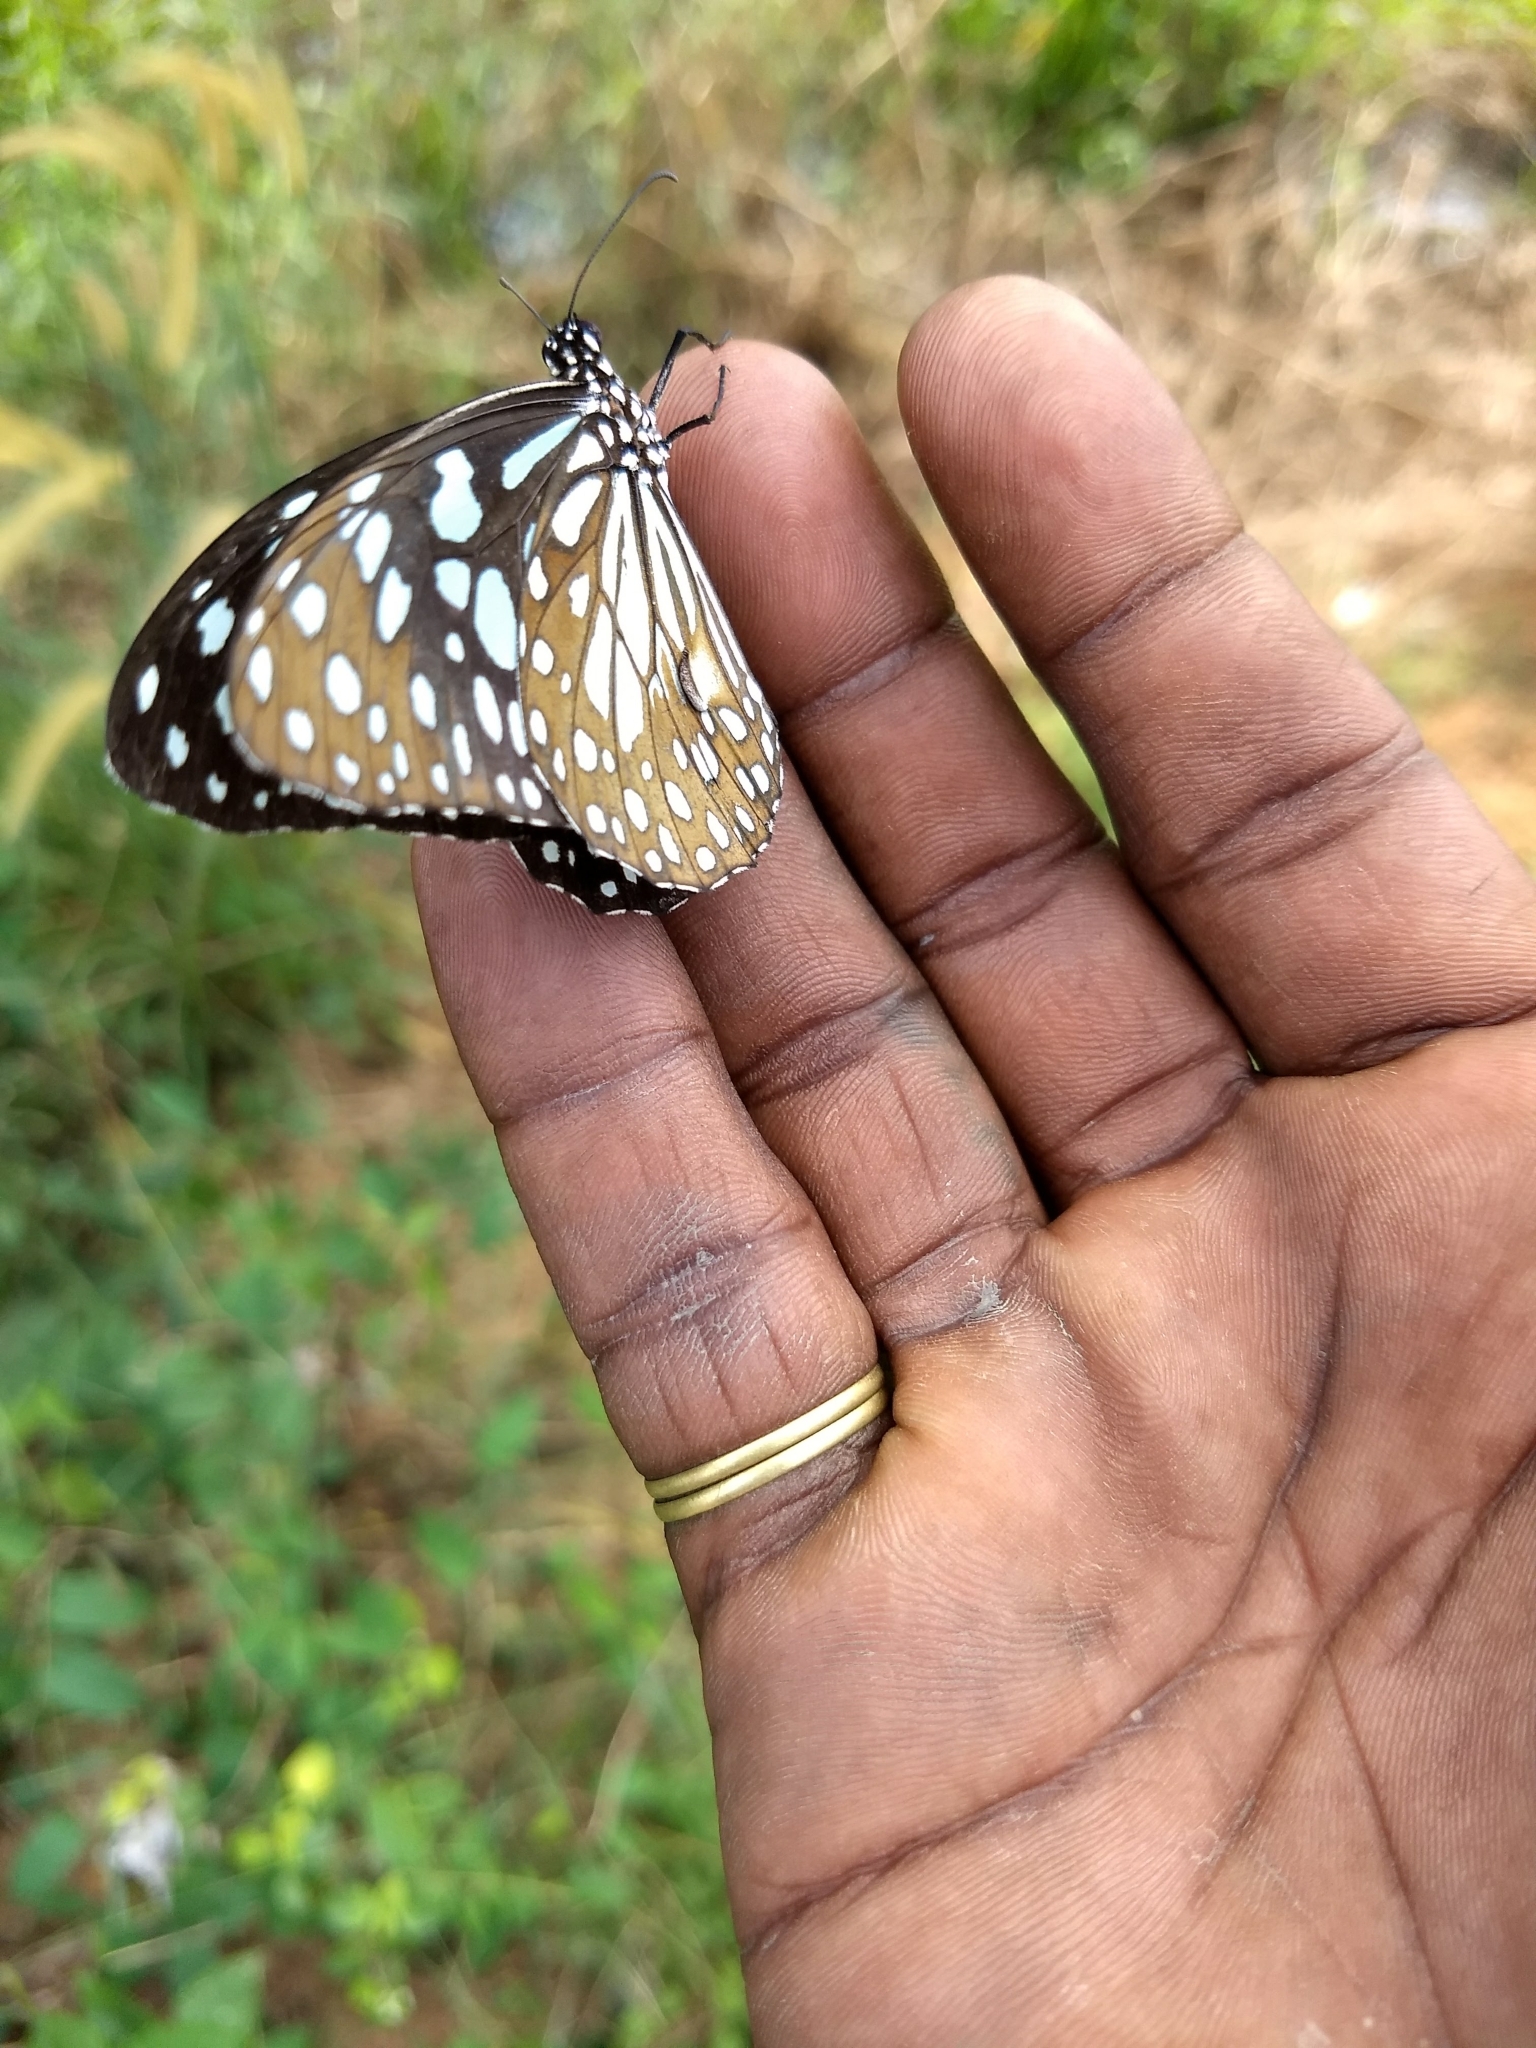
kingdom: Animalia
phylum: Arthropoda
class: Insecta
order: Lepidoptera
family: Nymphalidae
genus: Tirumala
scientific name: Tirumala limniace
